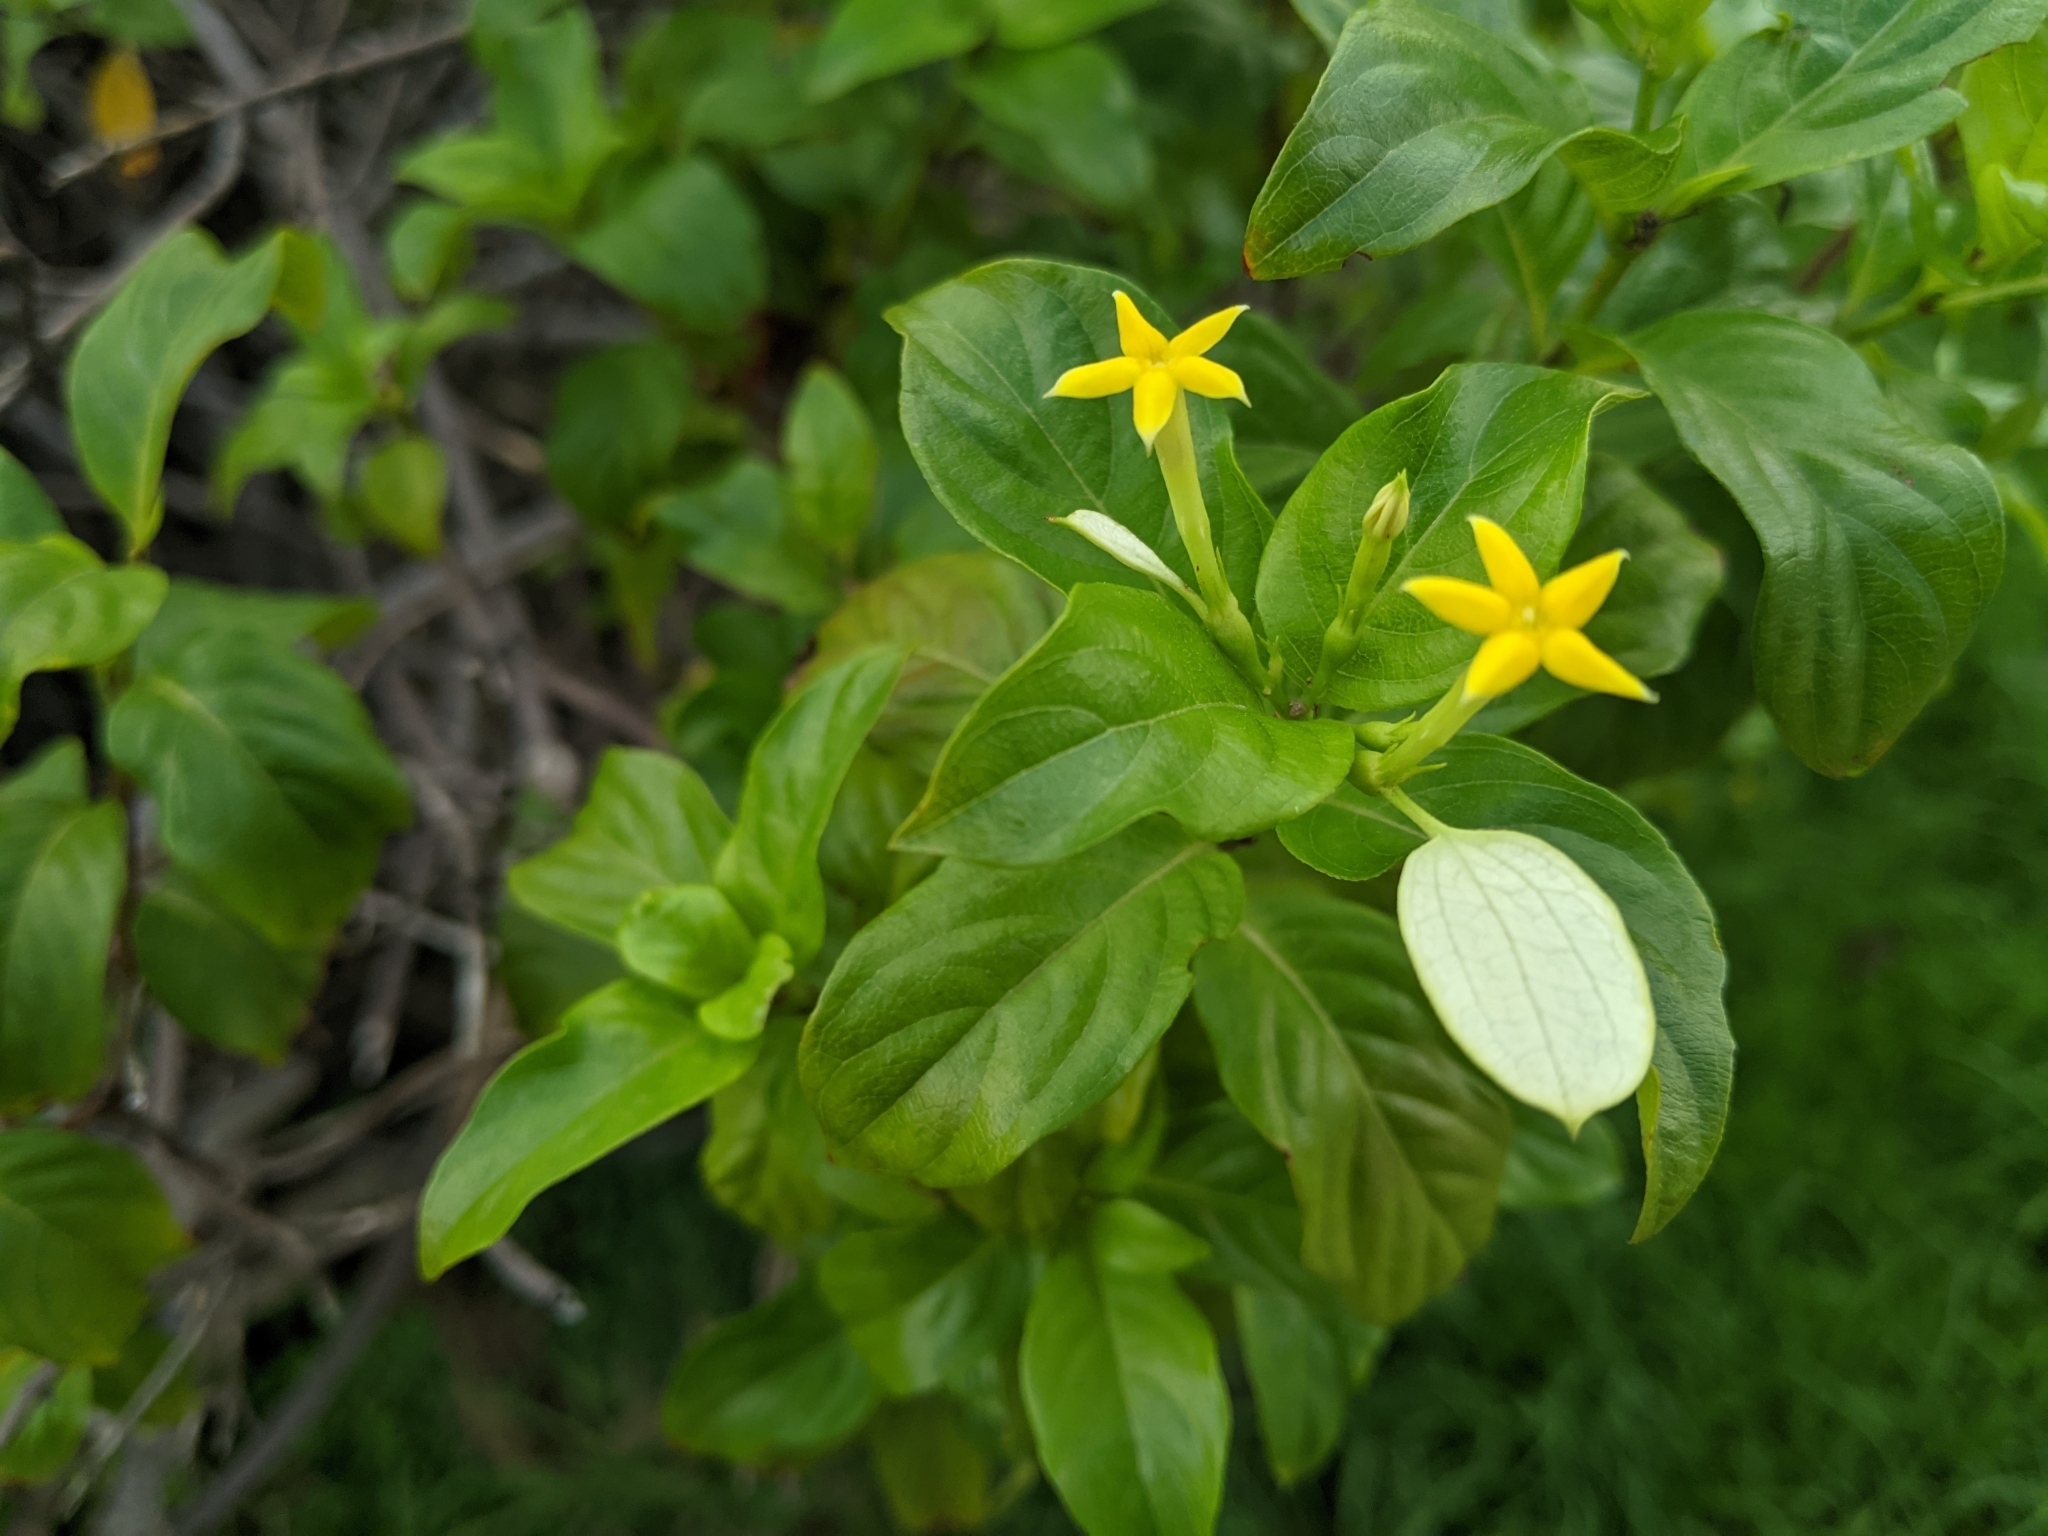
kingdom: Plantae
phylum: Tracheophyta
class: Magnoliopsida
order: Gentianales
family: Rubiaceae
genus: Mussaenda
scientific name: Mussaenda formosana
